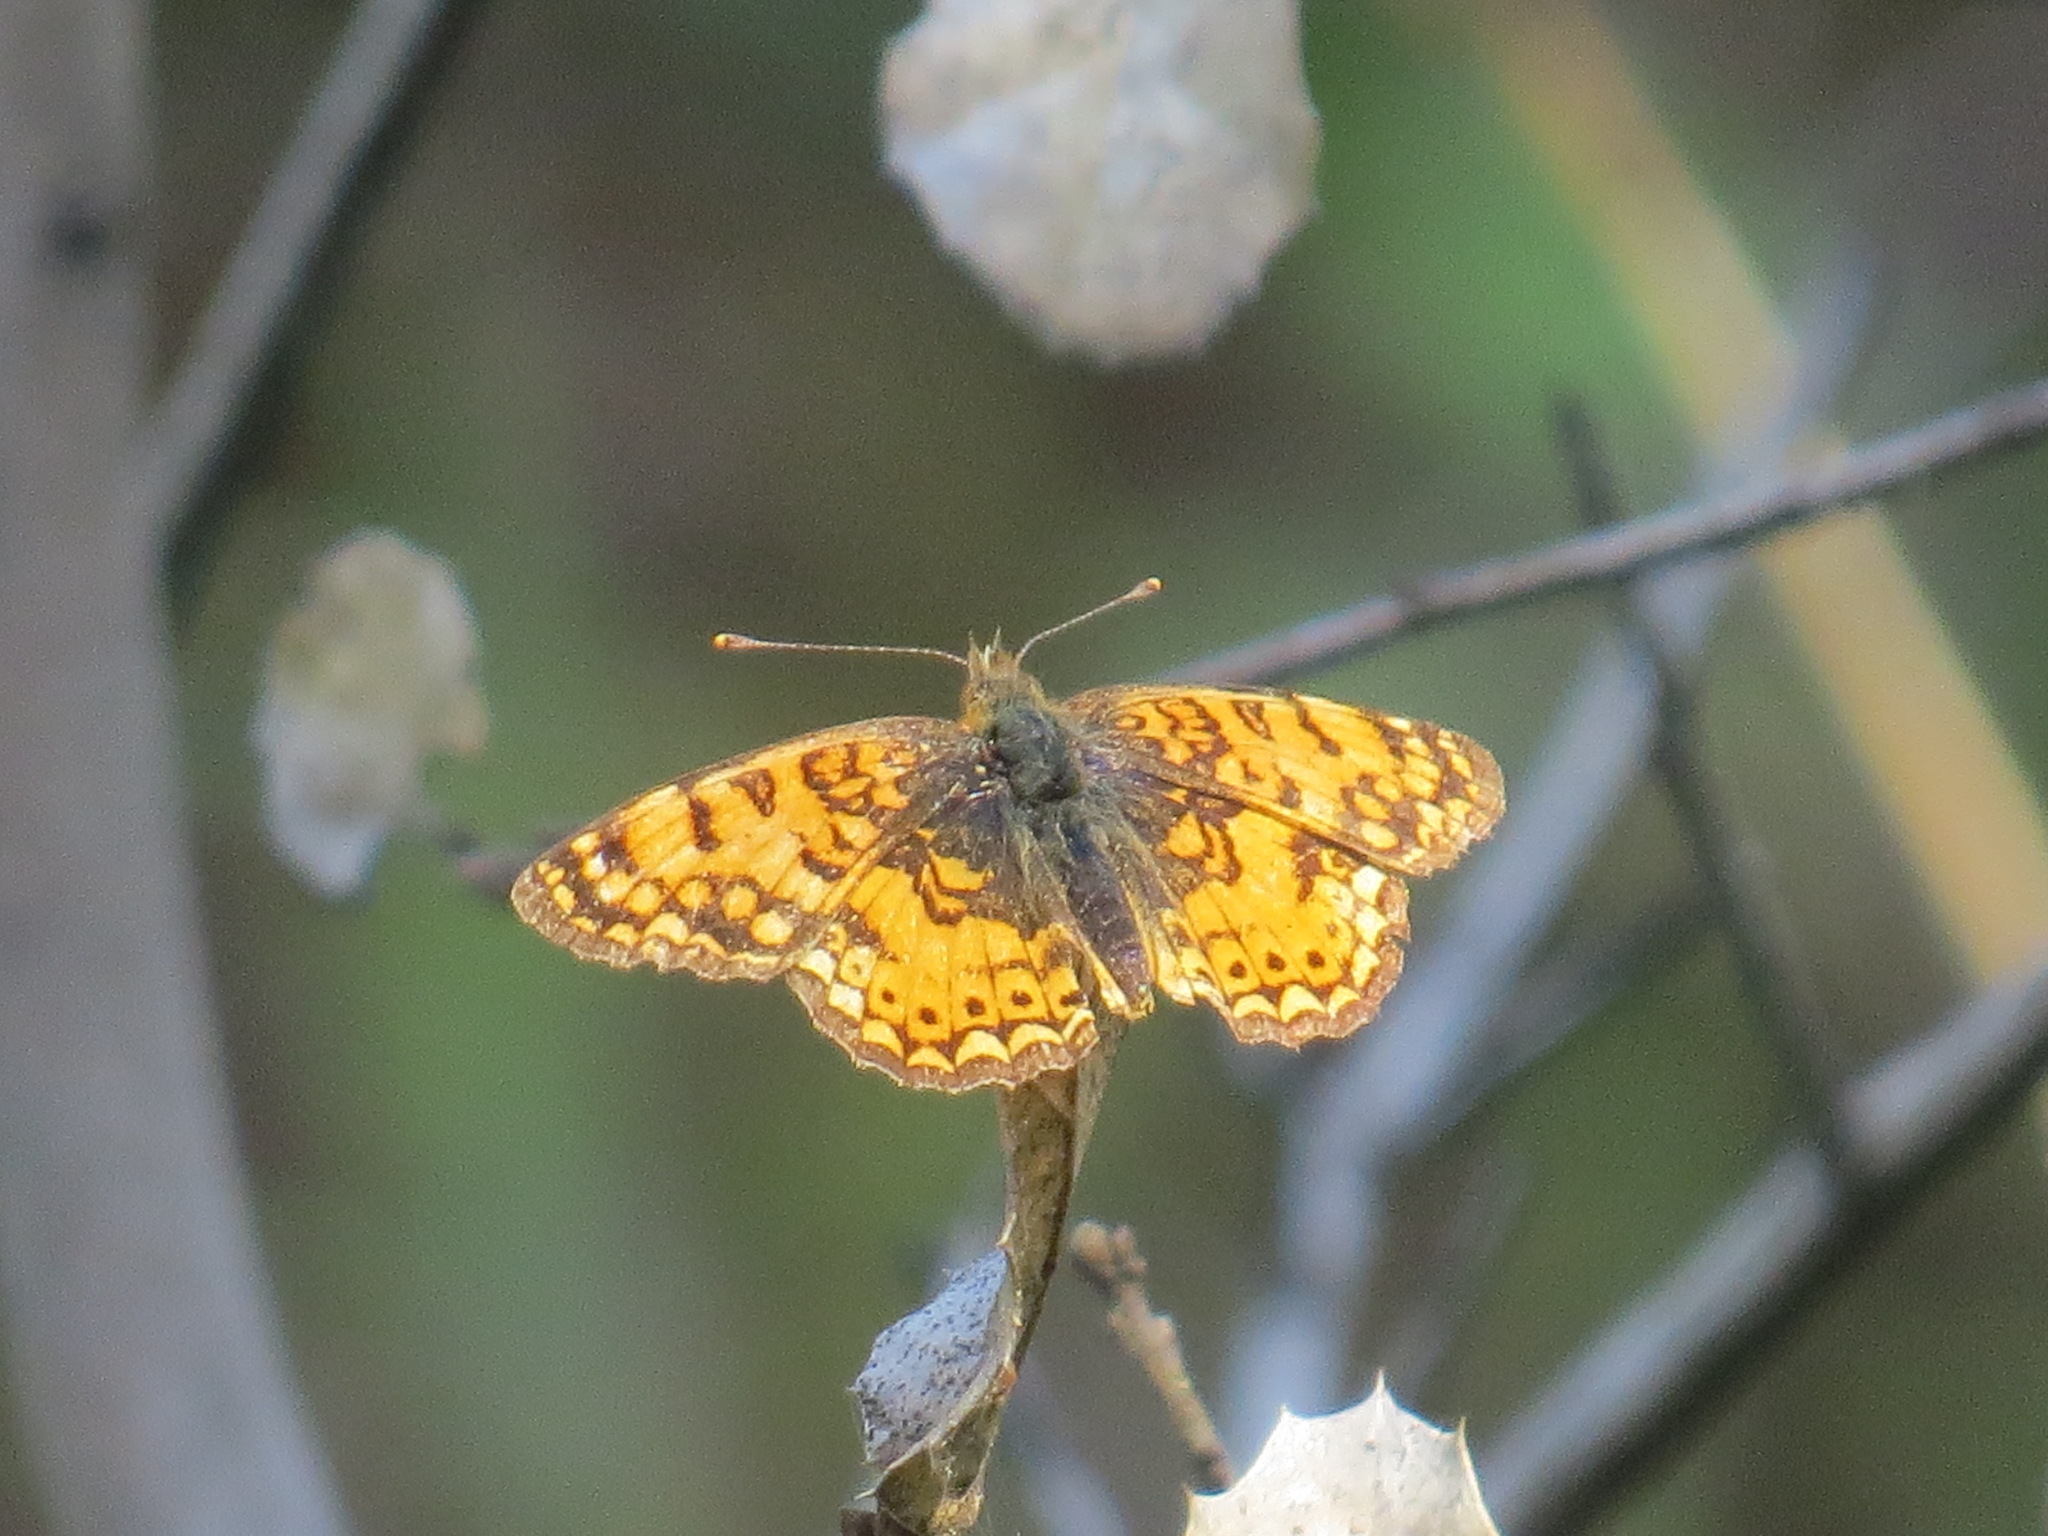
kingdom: Animalia
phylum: Arthropoda
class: Insecta
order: Lepidoptera
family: Nymphalidae
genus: Eresia
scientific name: Eresia aveyrona
